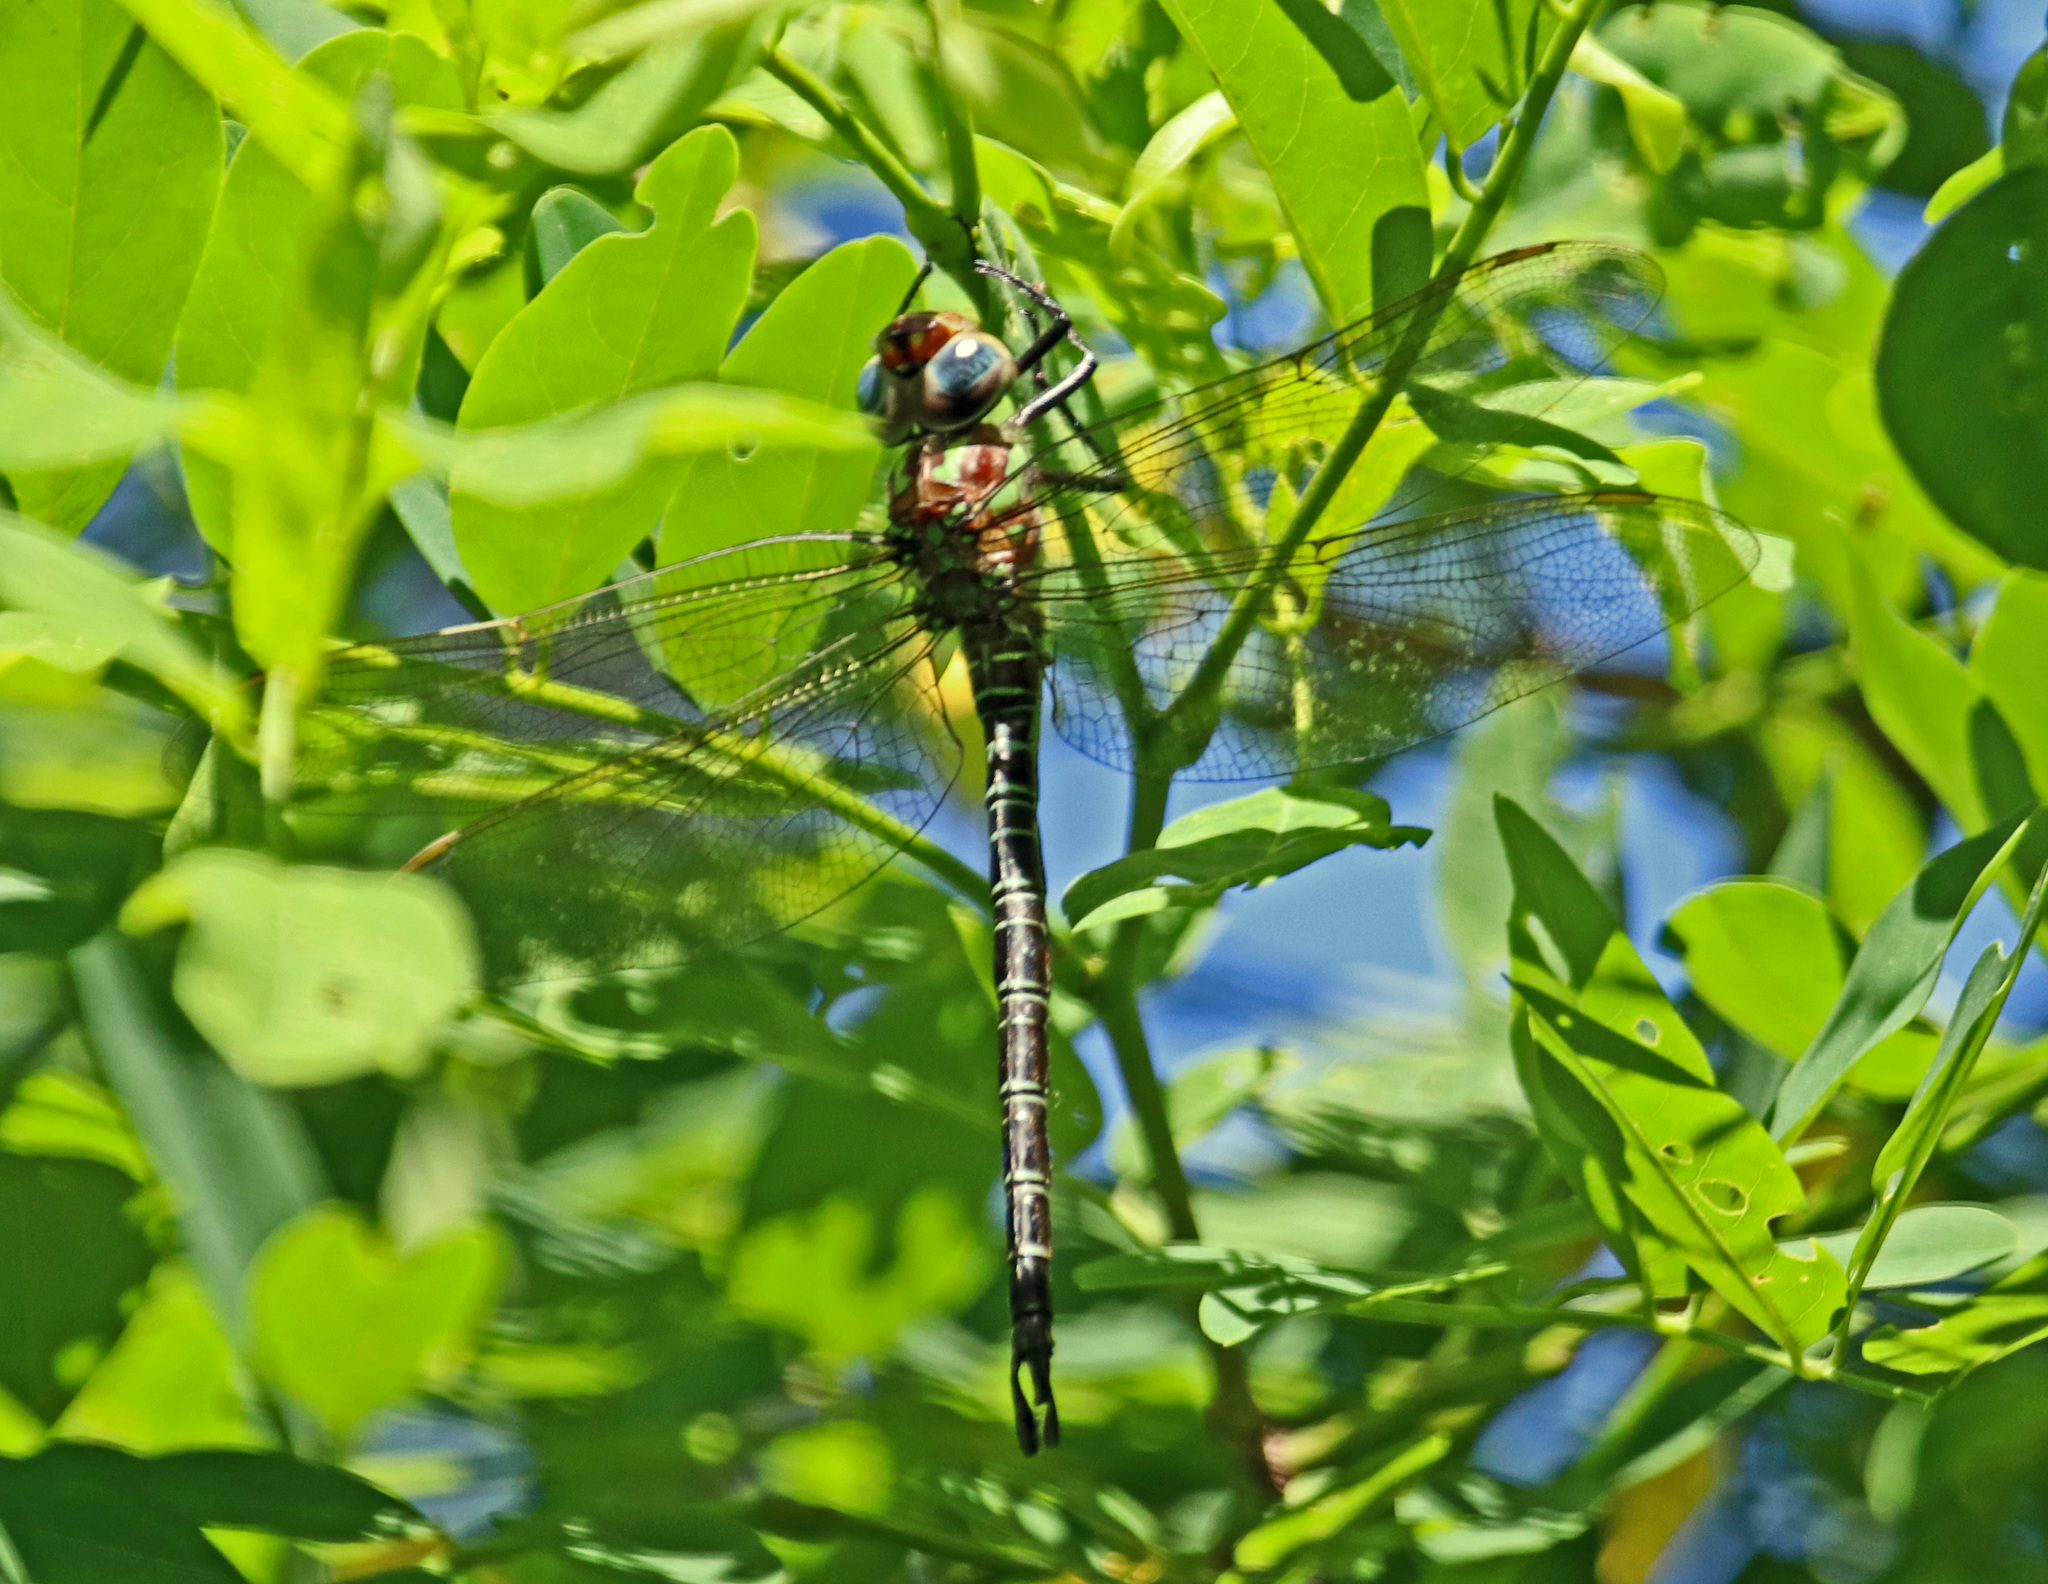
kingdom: Animalia
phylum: Arthropoda
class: Insecta
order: Odonata
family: Aeshnidae
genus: Epiaeschna
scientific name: Epiaeschna heros
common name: Swamp darner
